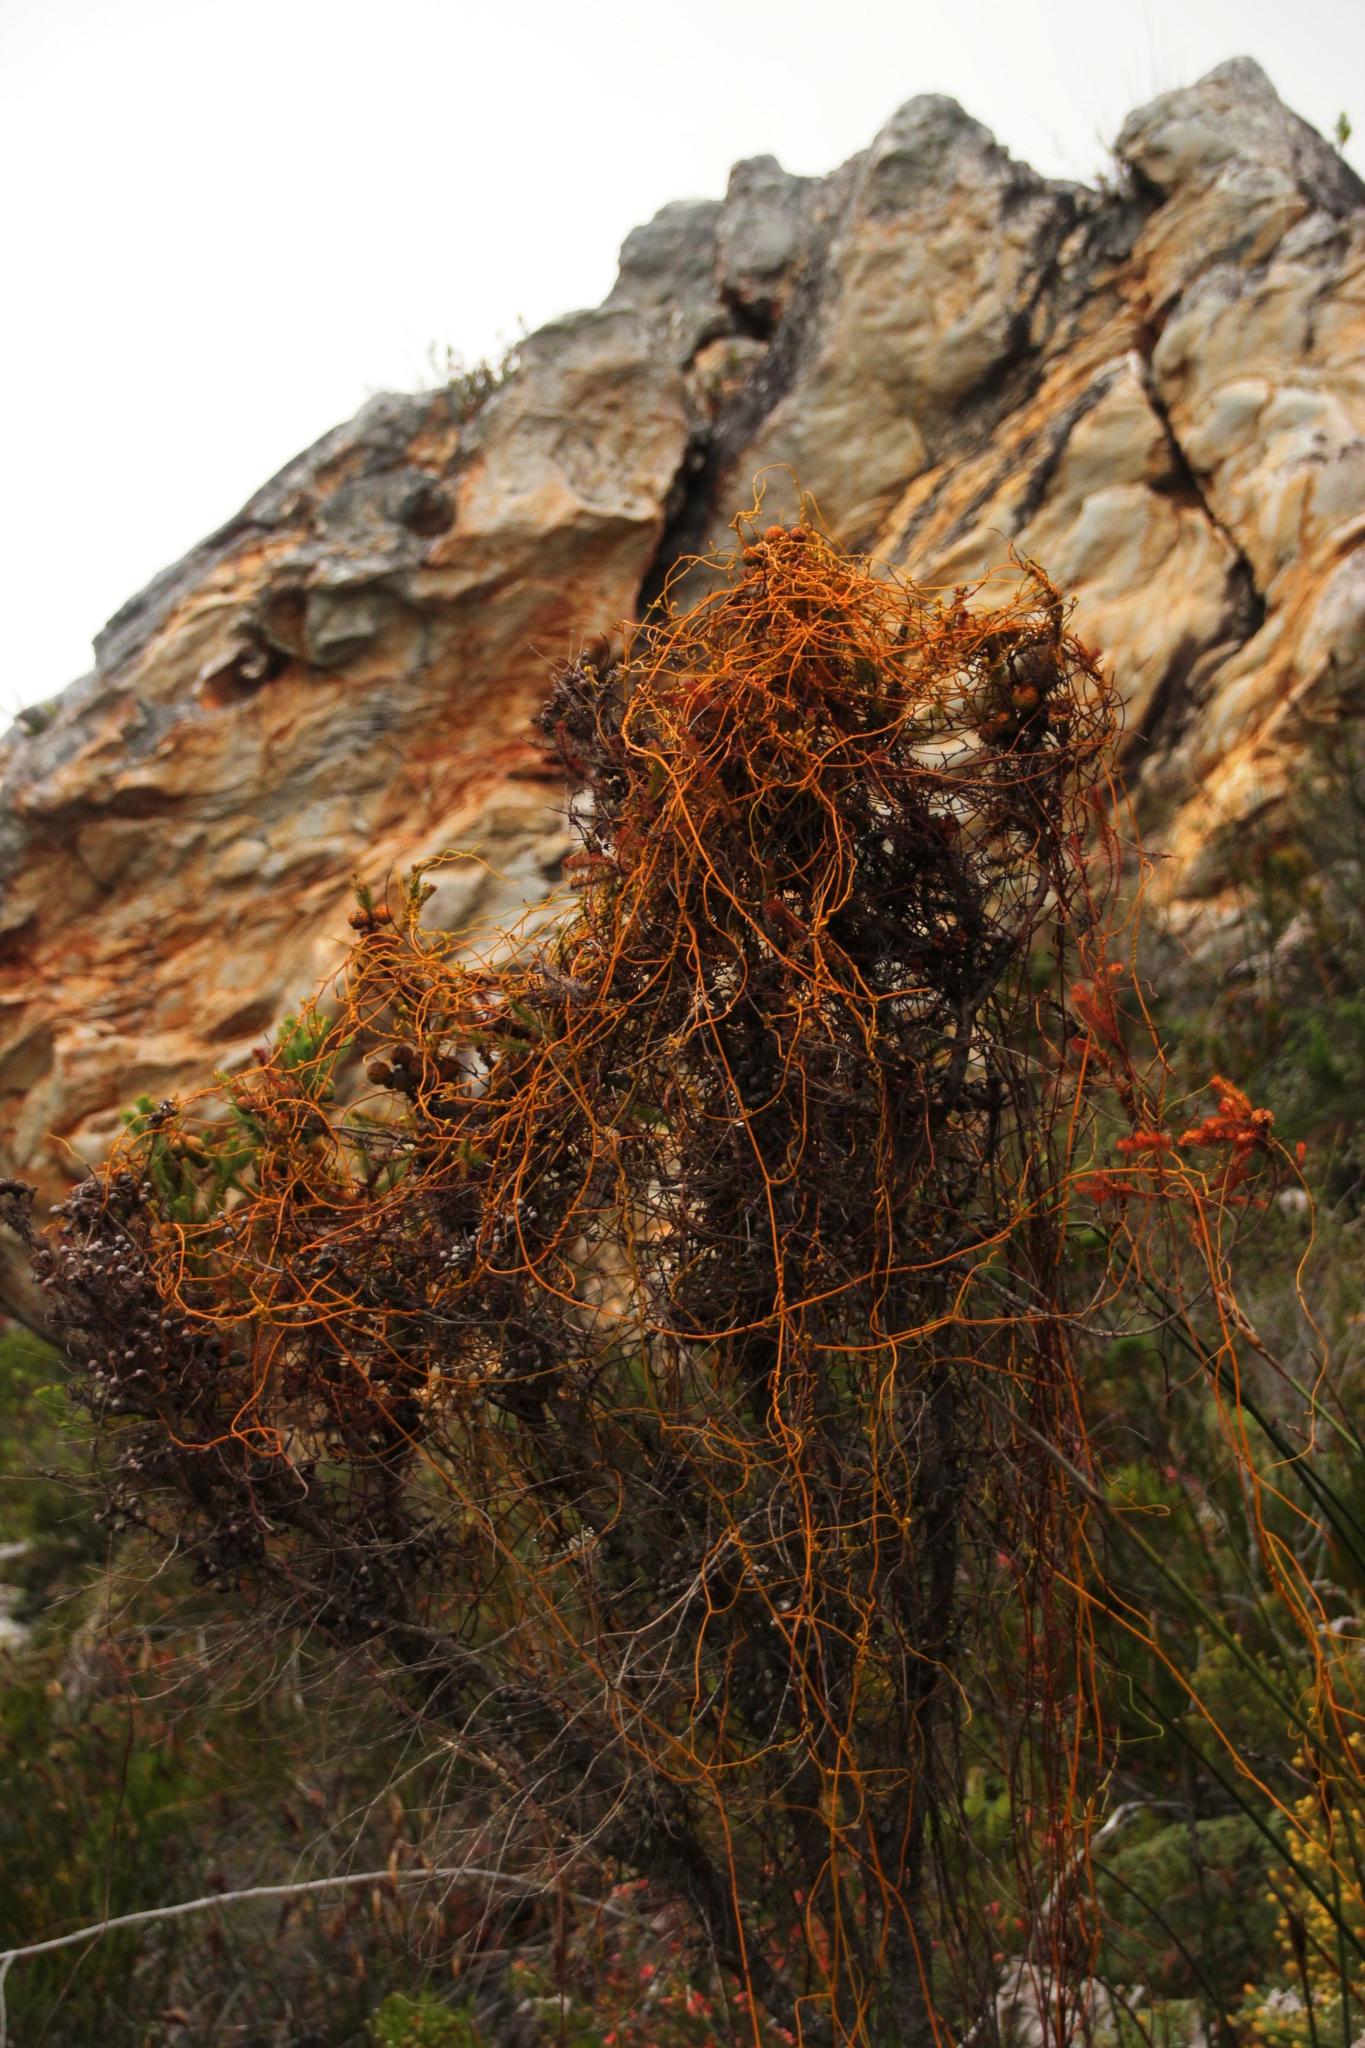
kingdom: Plantae
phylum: Tracheophyta
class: Magnoliopsida
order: Laurales
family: Lauraceae
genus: Cassytha
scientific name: Cassytha ciliolata
